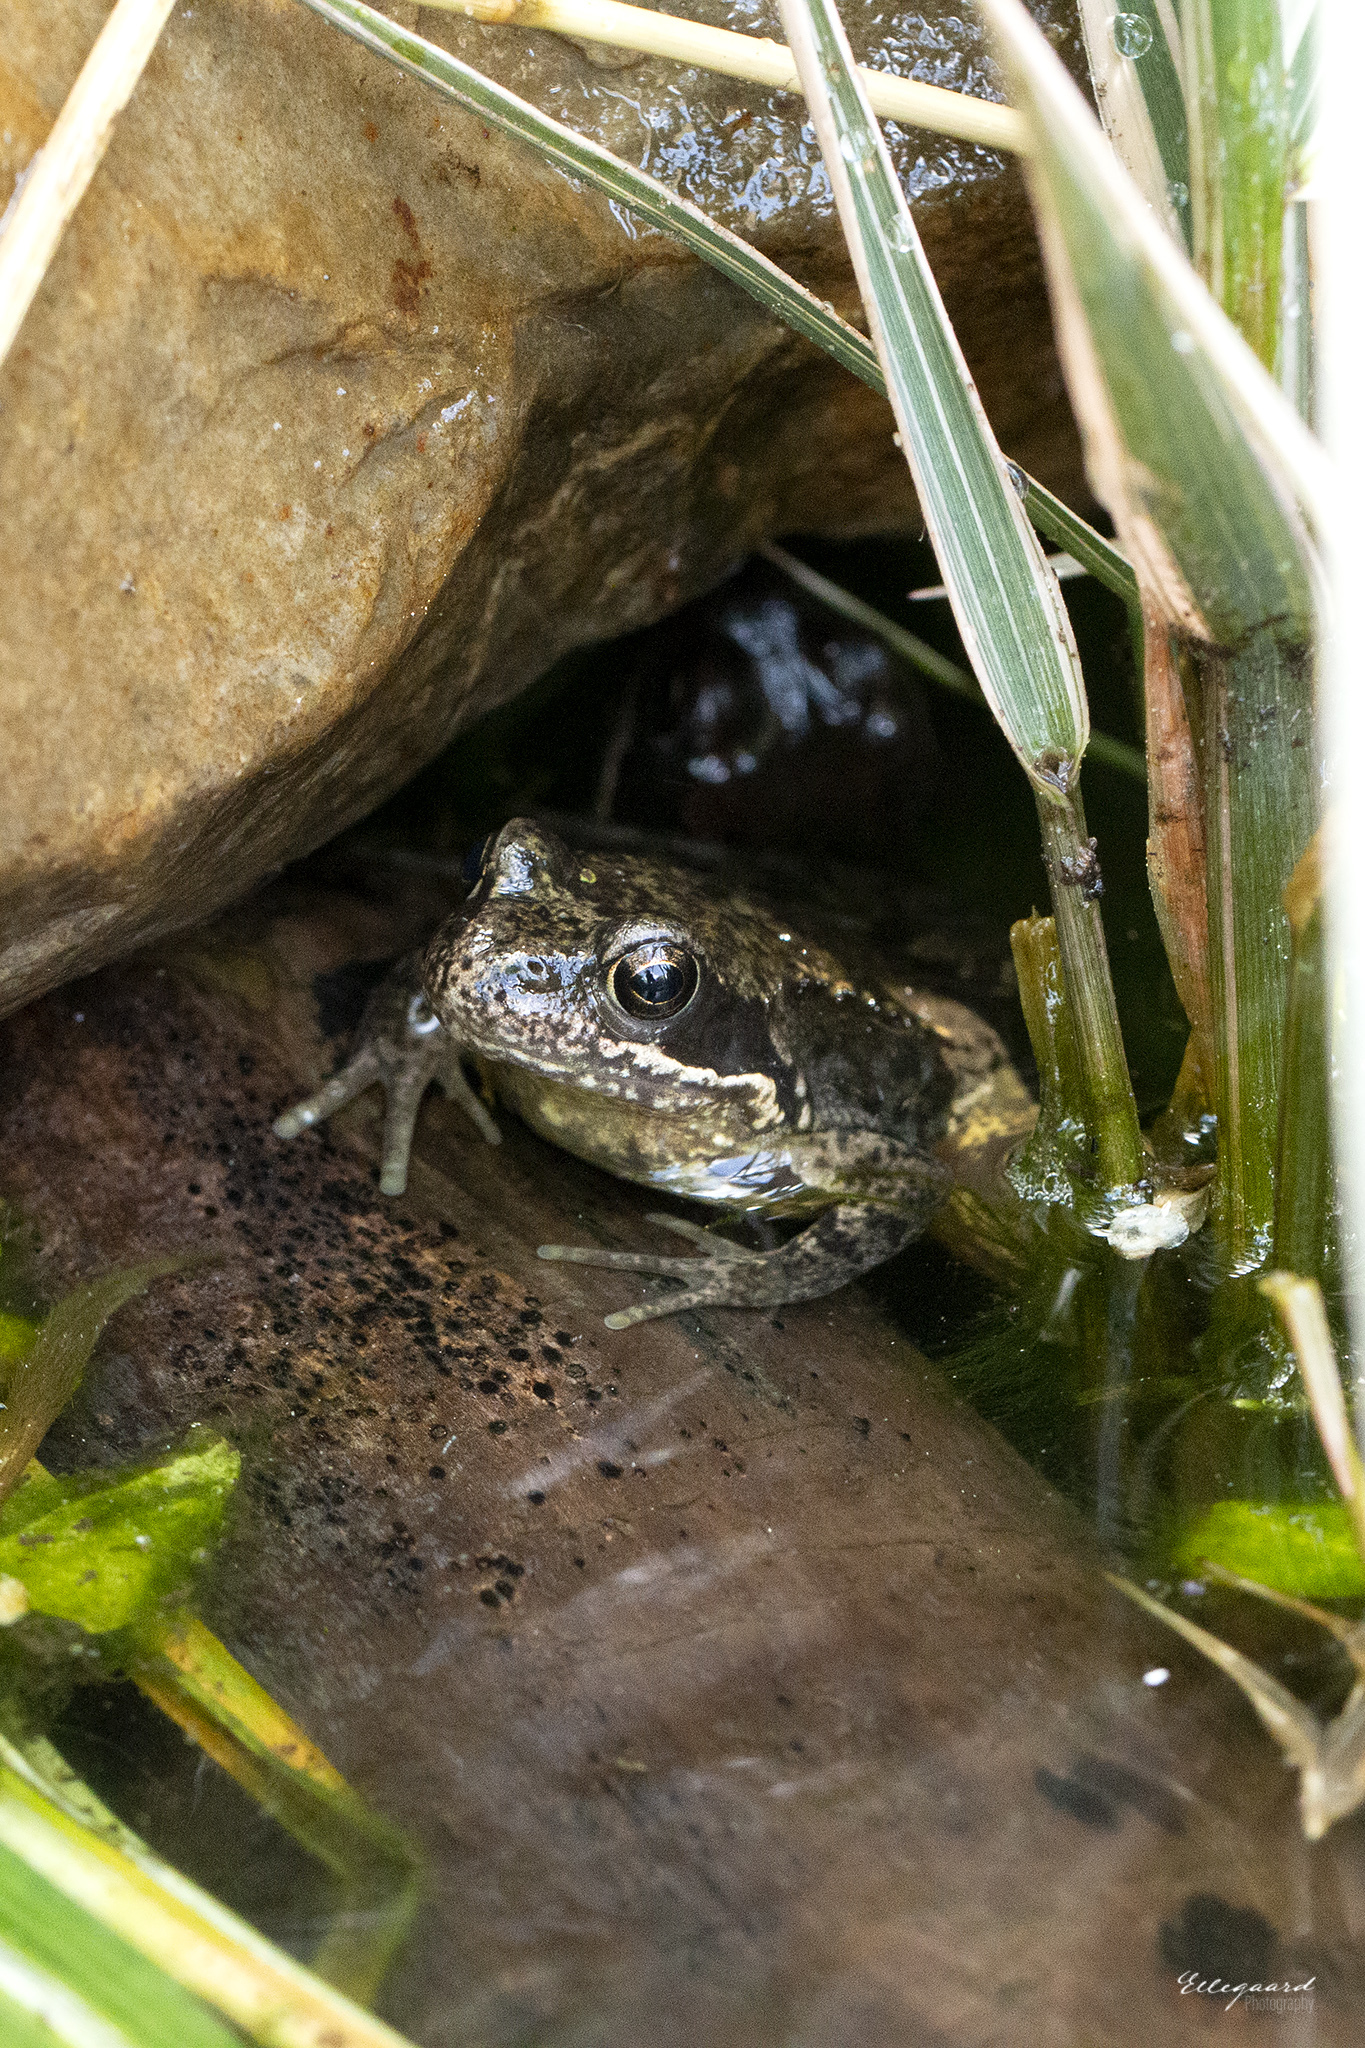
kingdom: Animalia
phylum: Chordata
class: Amphibia
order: Anura
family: Ranidae
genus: Rana
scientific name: Rana temporaria
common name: Common frog
